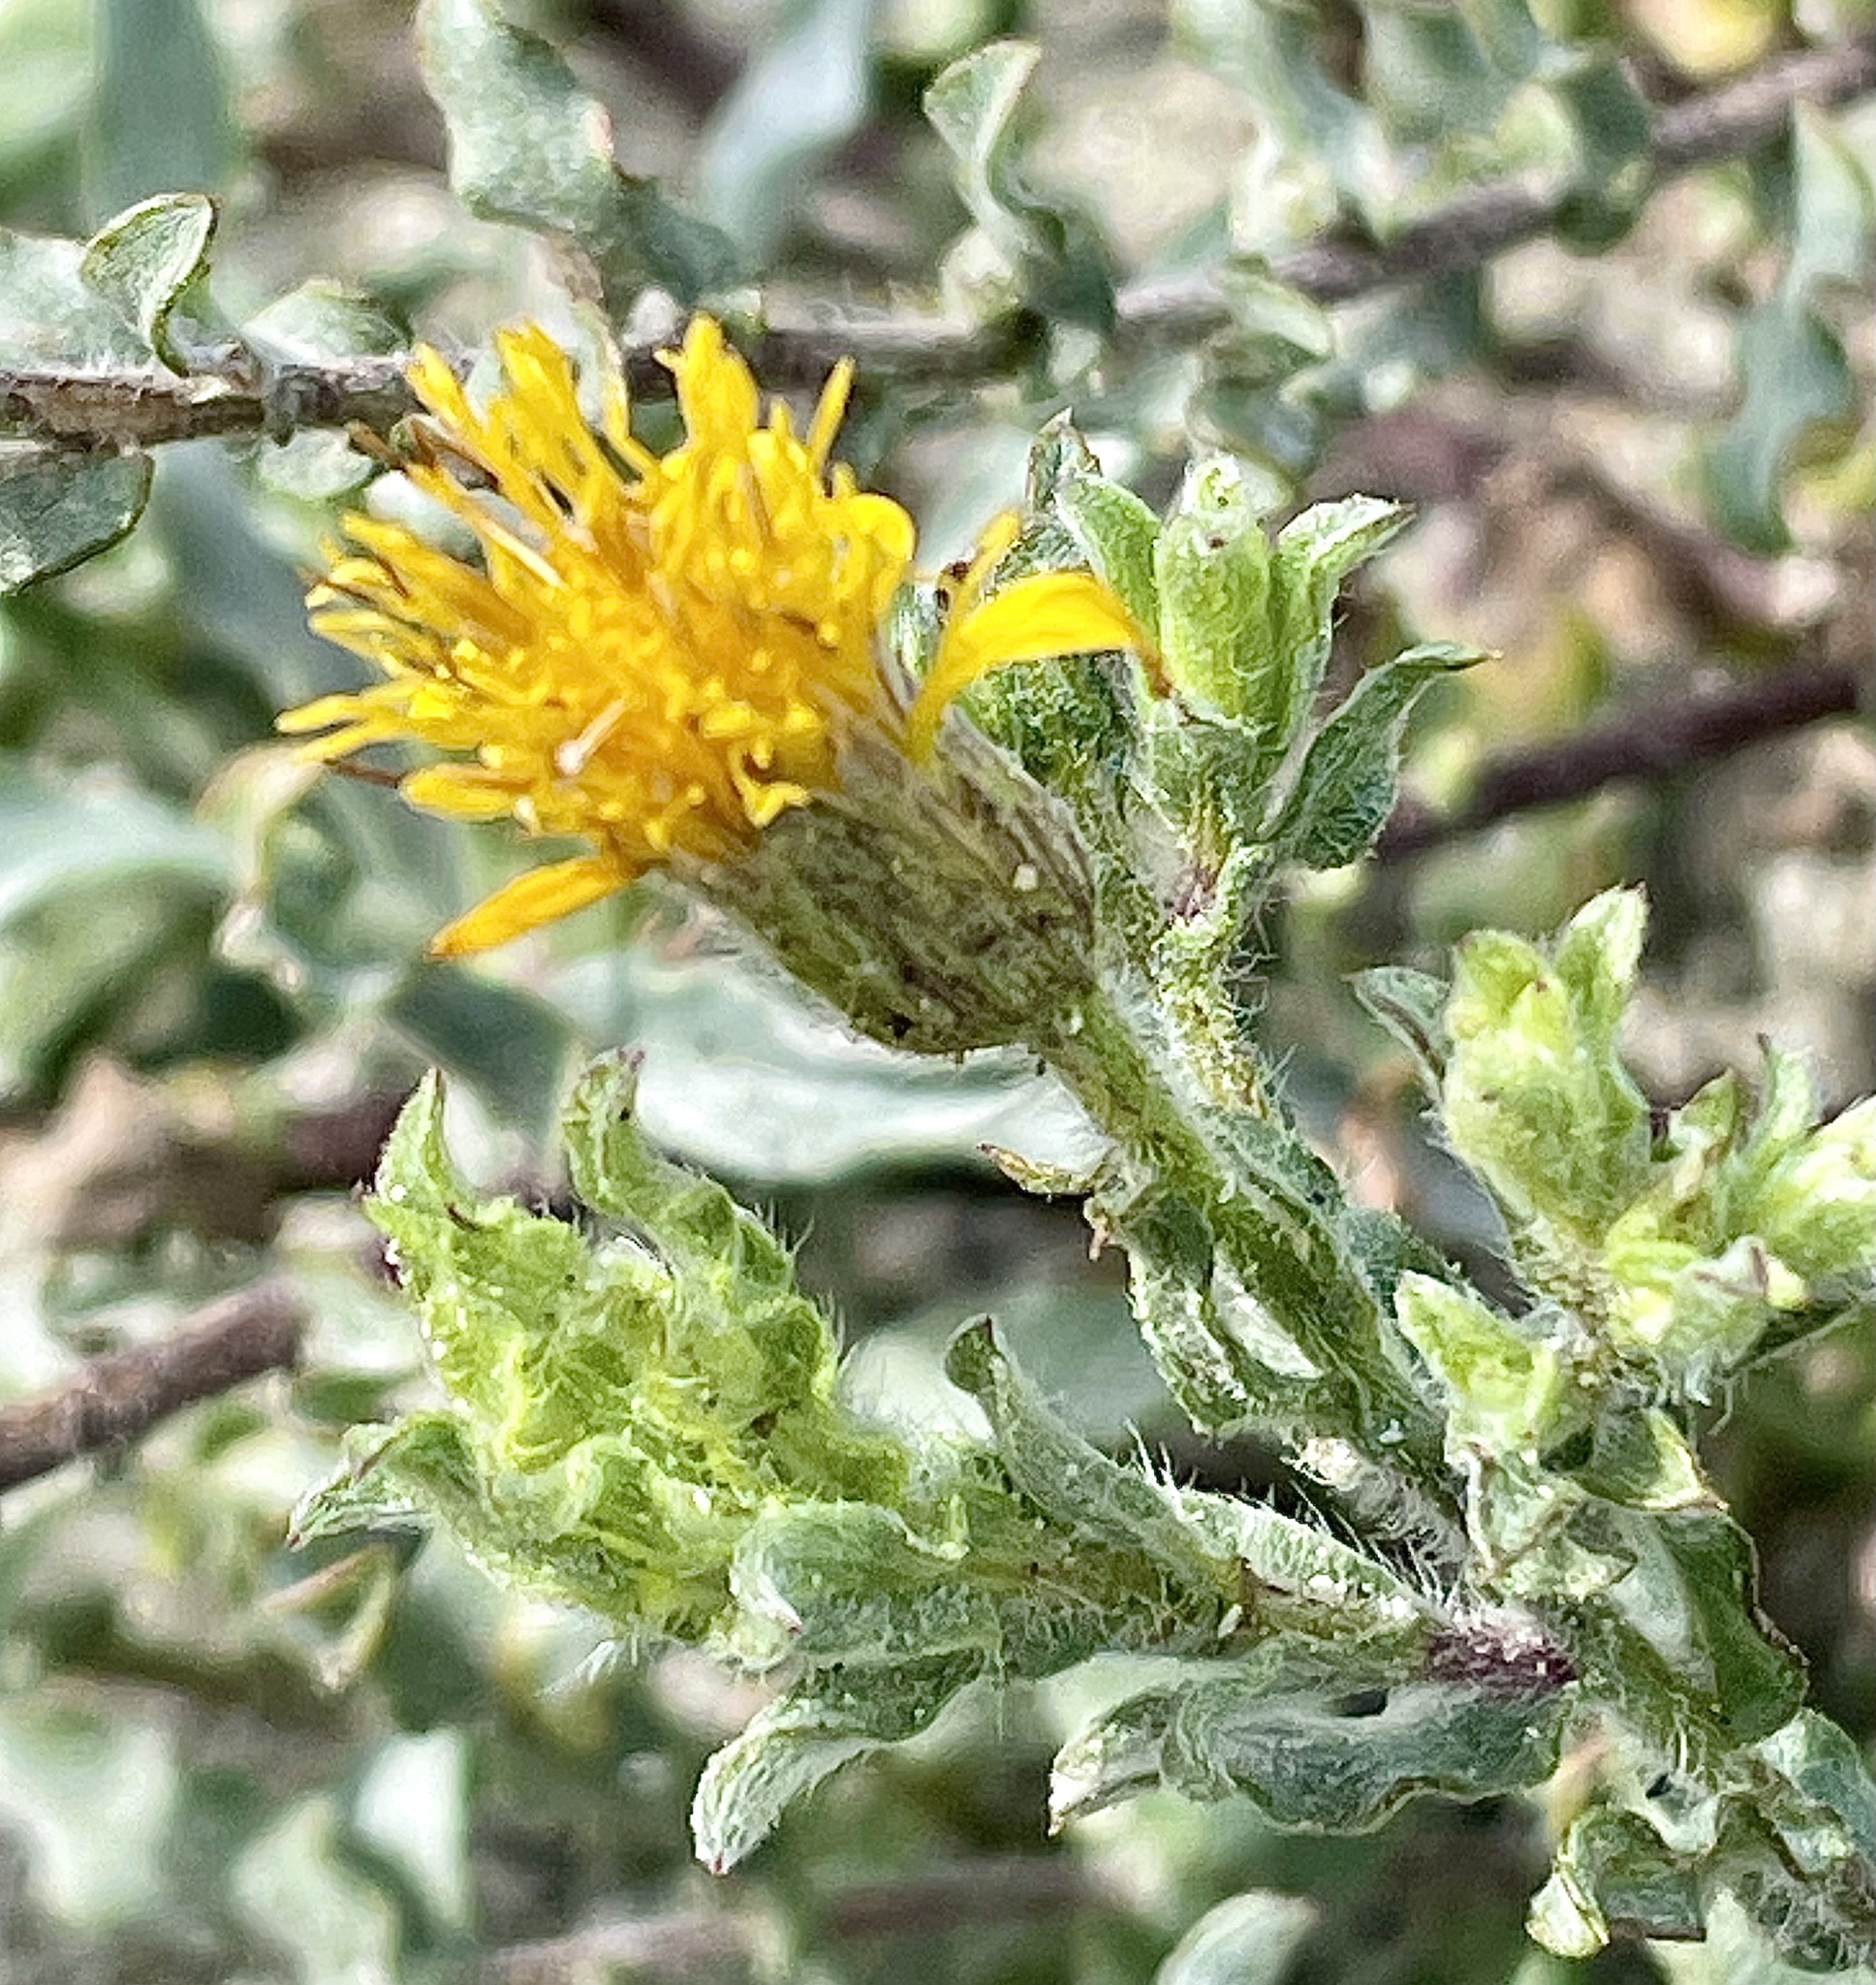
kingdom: Plantae
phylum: Tracheophyta
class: Magnoliopsida
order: Asterales
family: Asteraceae
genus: Heterotheca
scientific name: Heterotheca sessiliflora
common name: Sessile-flower golden-aster
